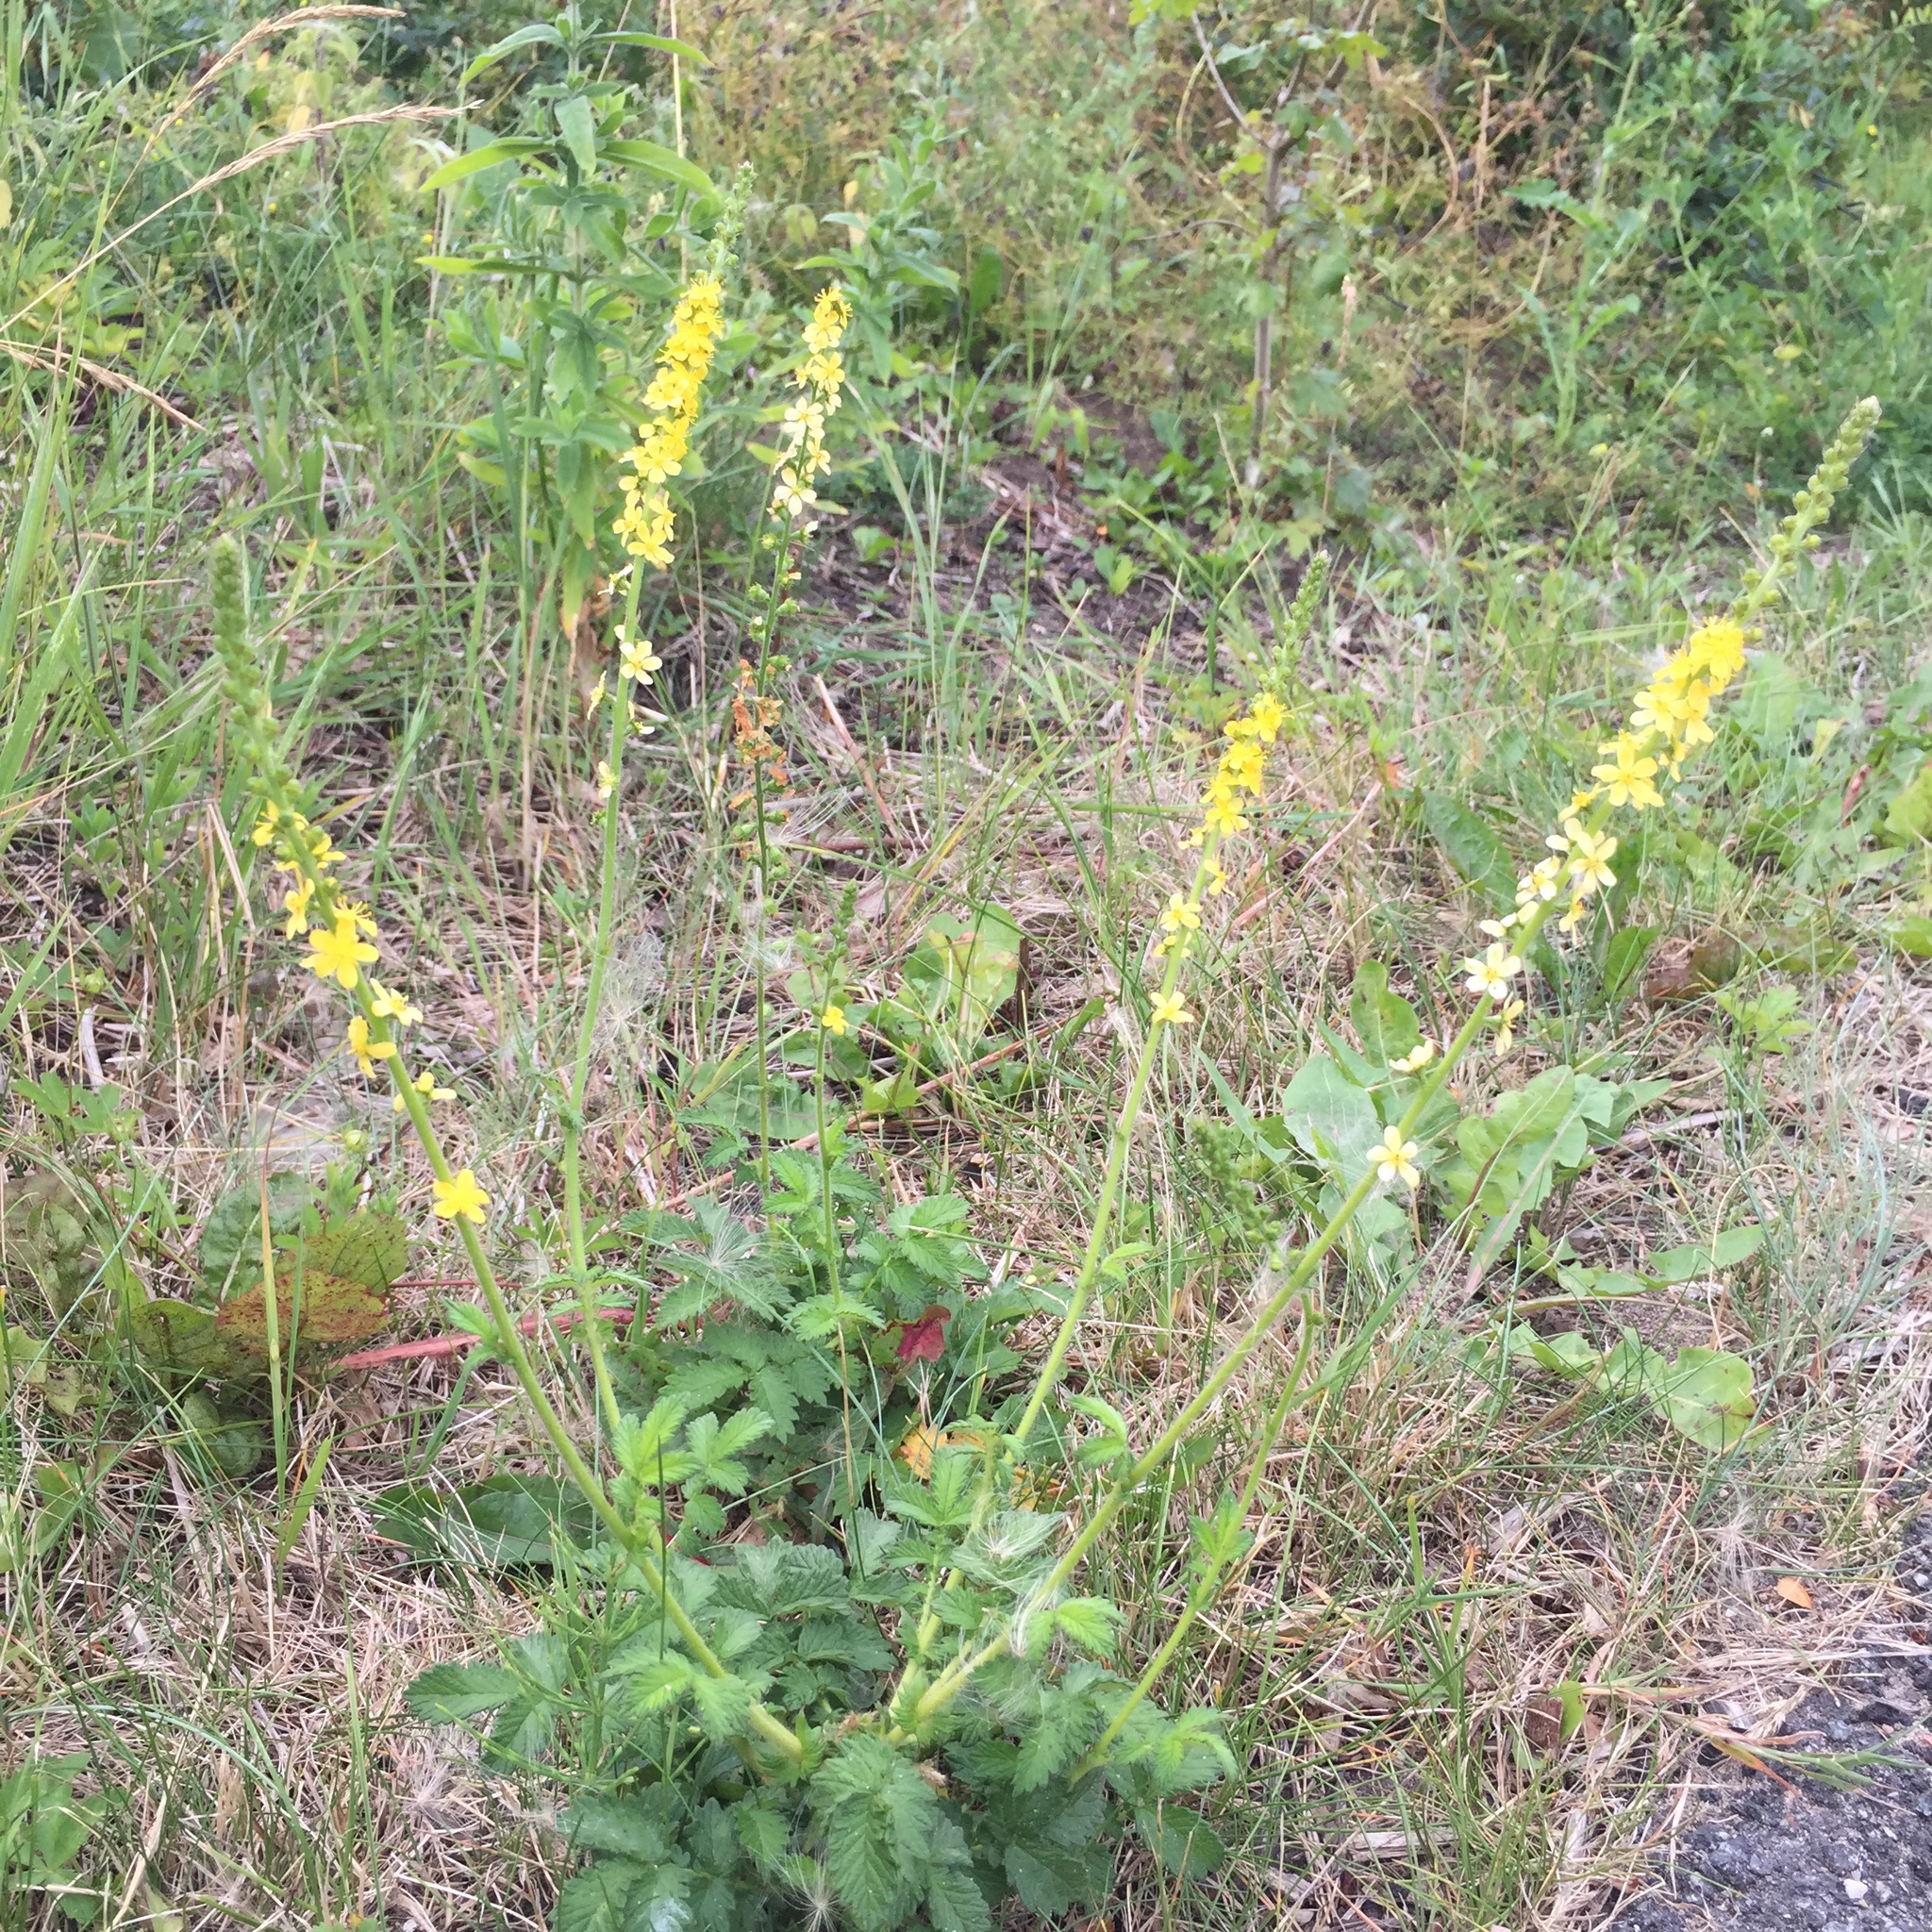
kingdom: Plantae
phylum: Tracheophyta
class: Magnoliopsida
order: Rosales
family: Rosaceae
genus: Agrimonia
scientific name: Agrimonia eupatoria
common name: Agrimony
